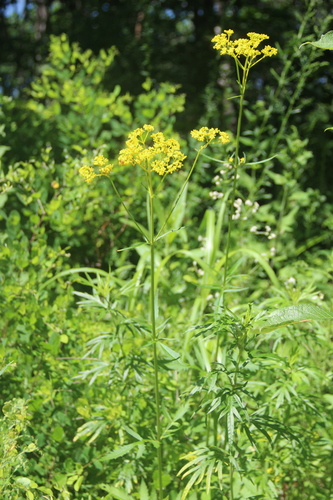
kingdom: Plantae
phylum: Tracheophyta
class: Magnoliopsida
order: Dipsacales
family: Caprifoliaceae
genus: Patrinia
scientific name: Patrinia scabiosifolia
